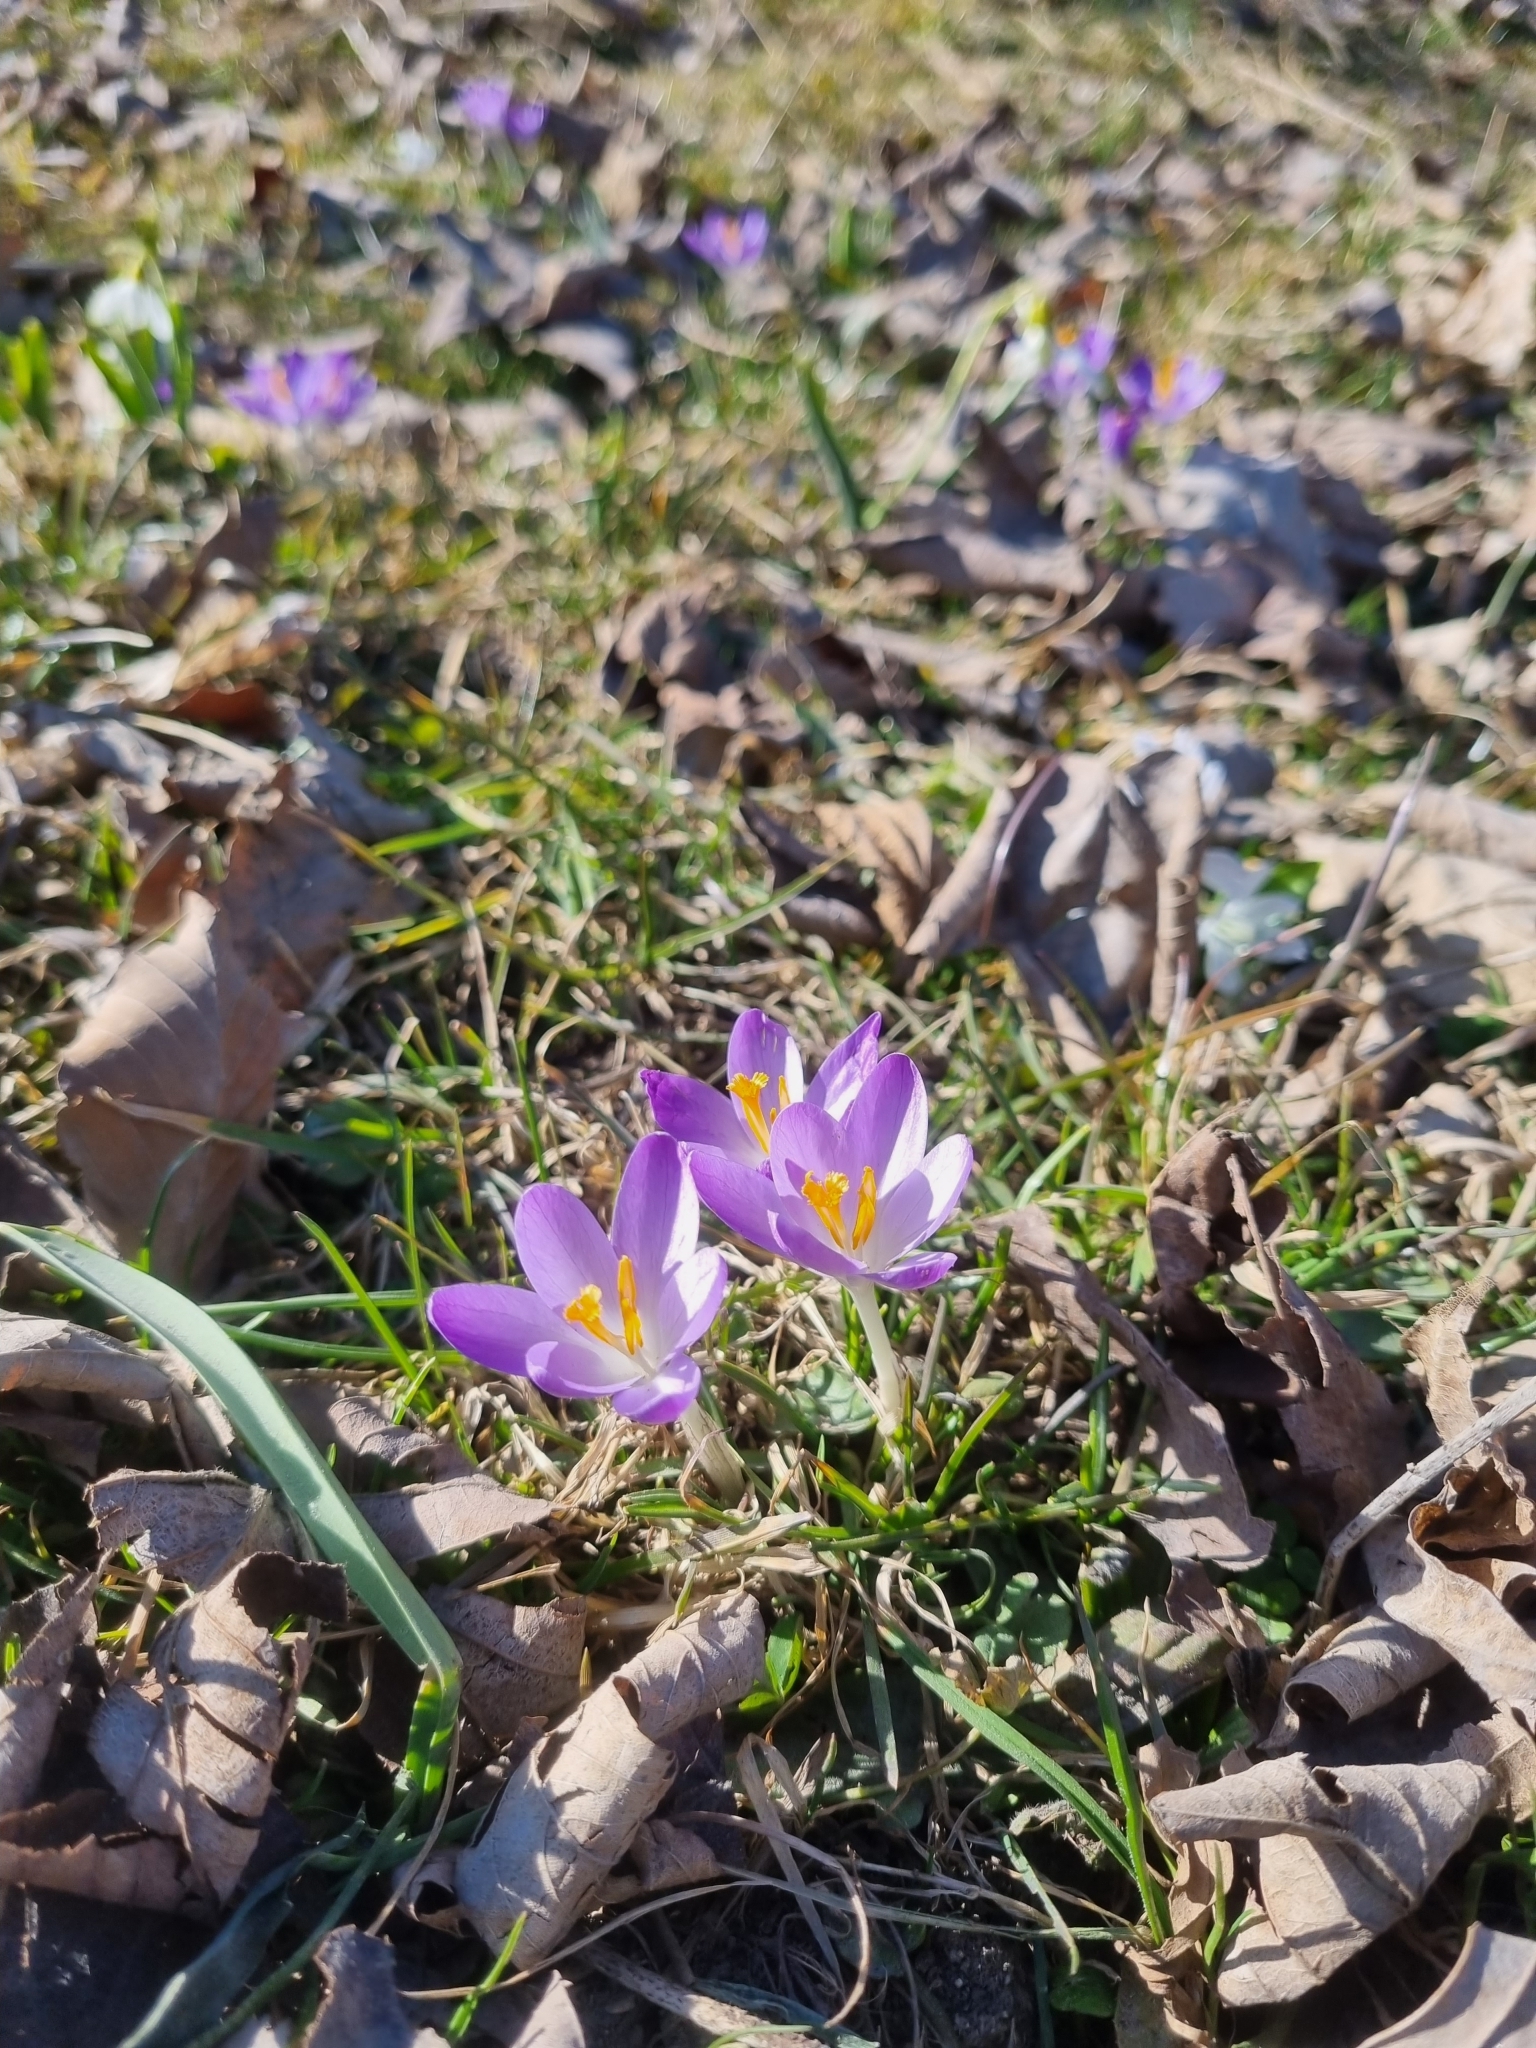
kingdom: Plantae
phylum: Tracheophyta
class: Liliopsida
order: Asparagales
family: Iridaceae
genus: Crocus
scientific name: Crocus tommasinianus
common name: Early crocus
